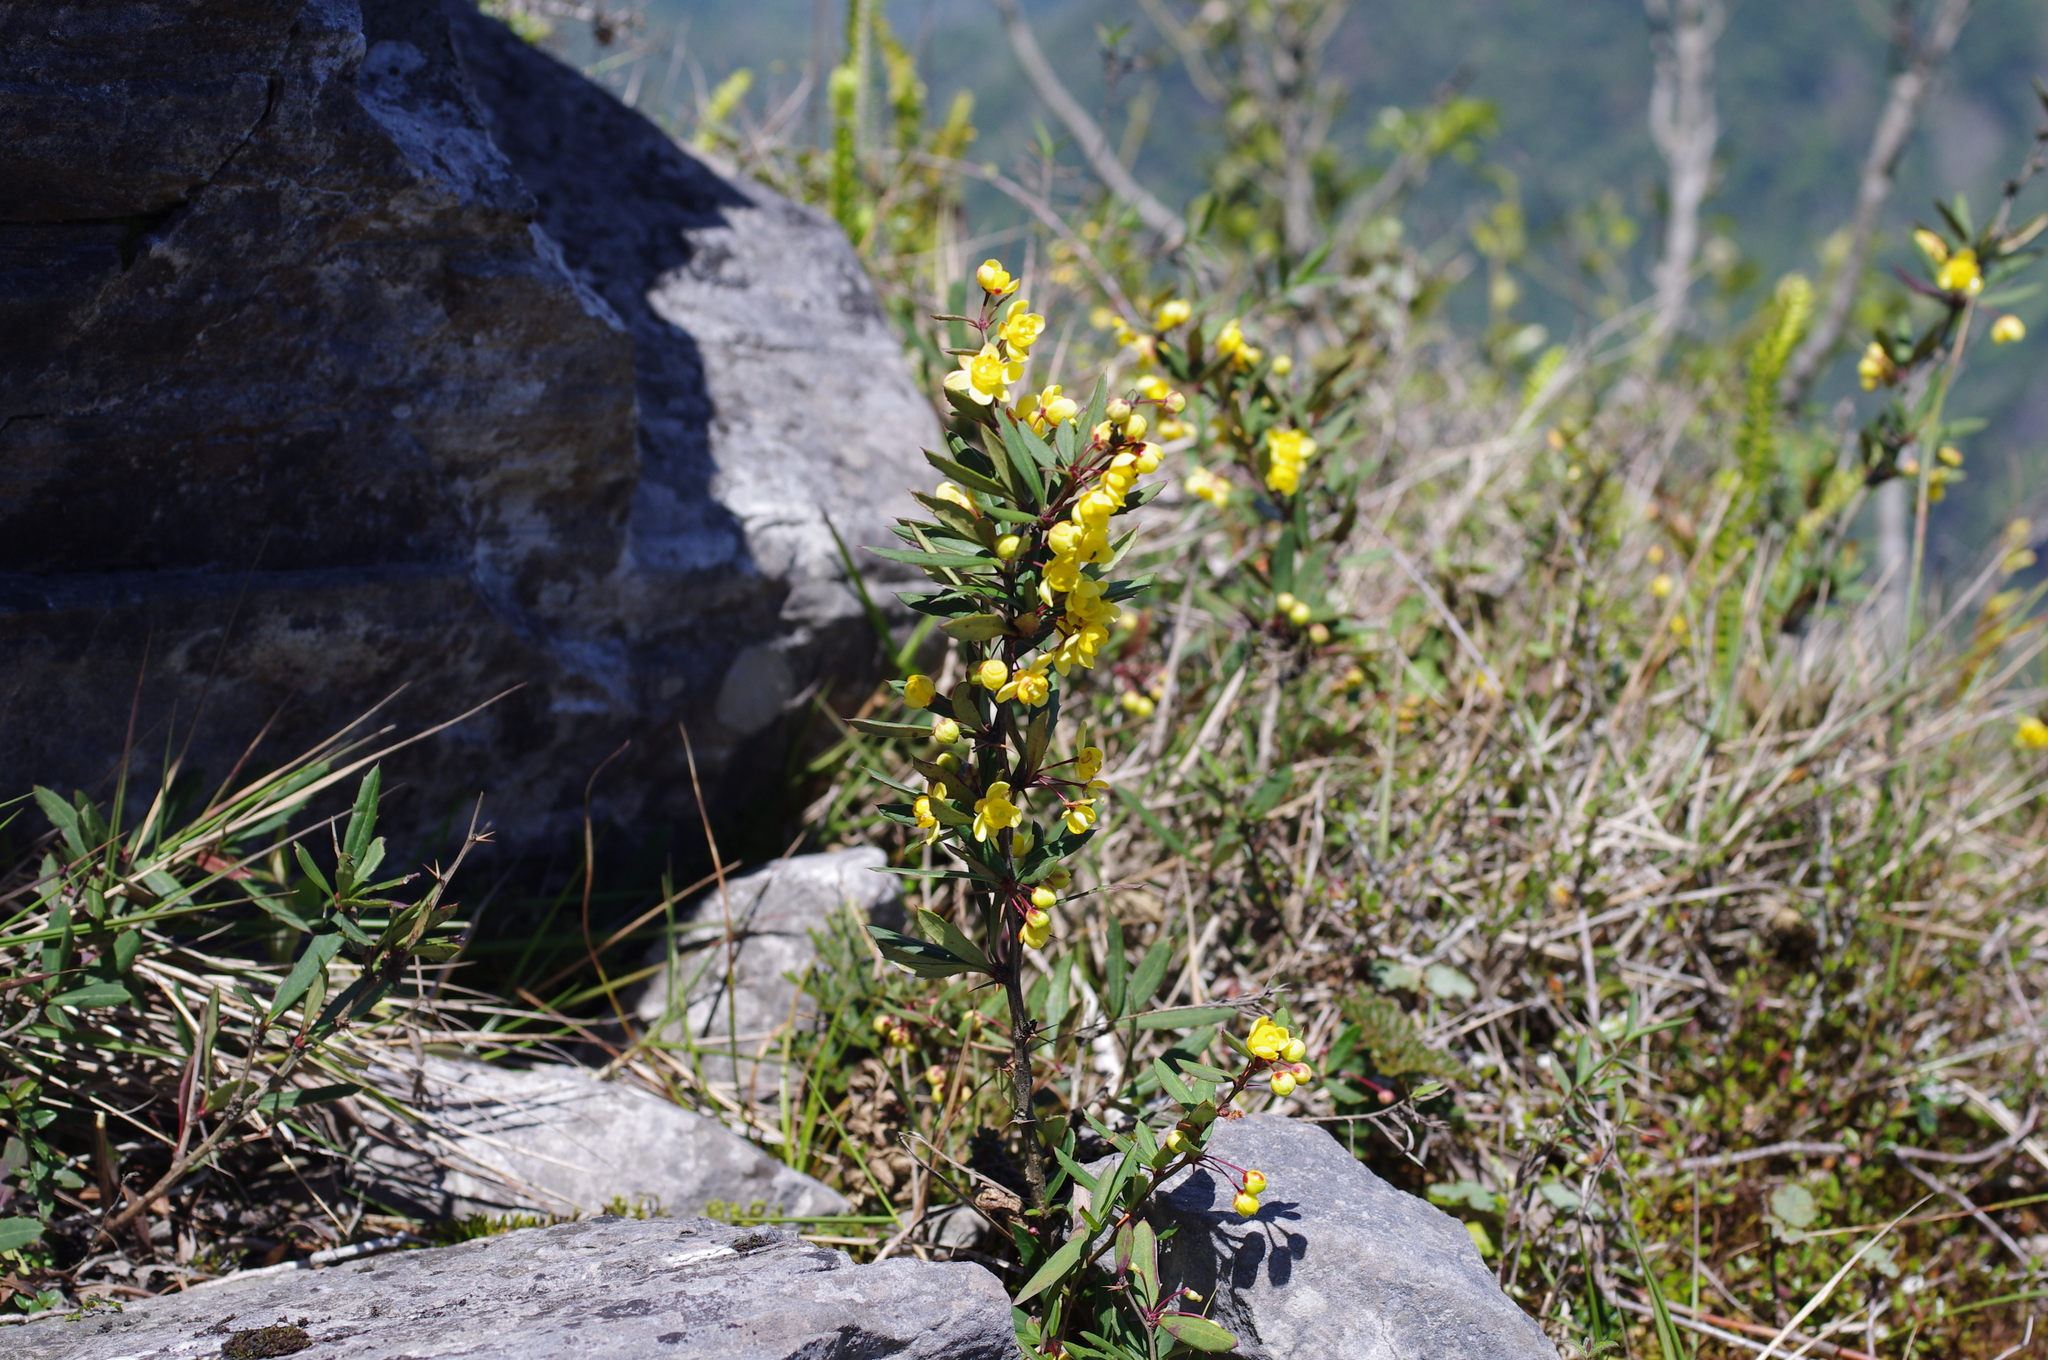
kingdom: Plantae
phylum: Tracheophyta
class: Magnoliopsida
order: Ranunculales
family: Berberidaceae
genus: Berberis
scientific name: Berberis tarokoensis
